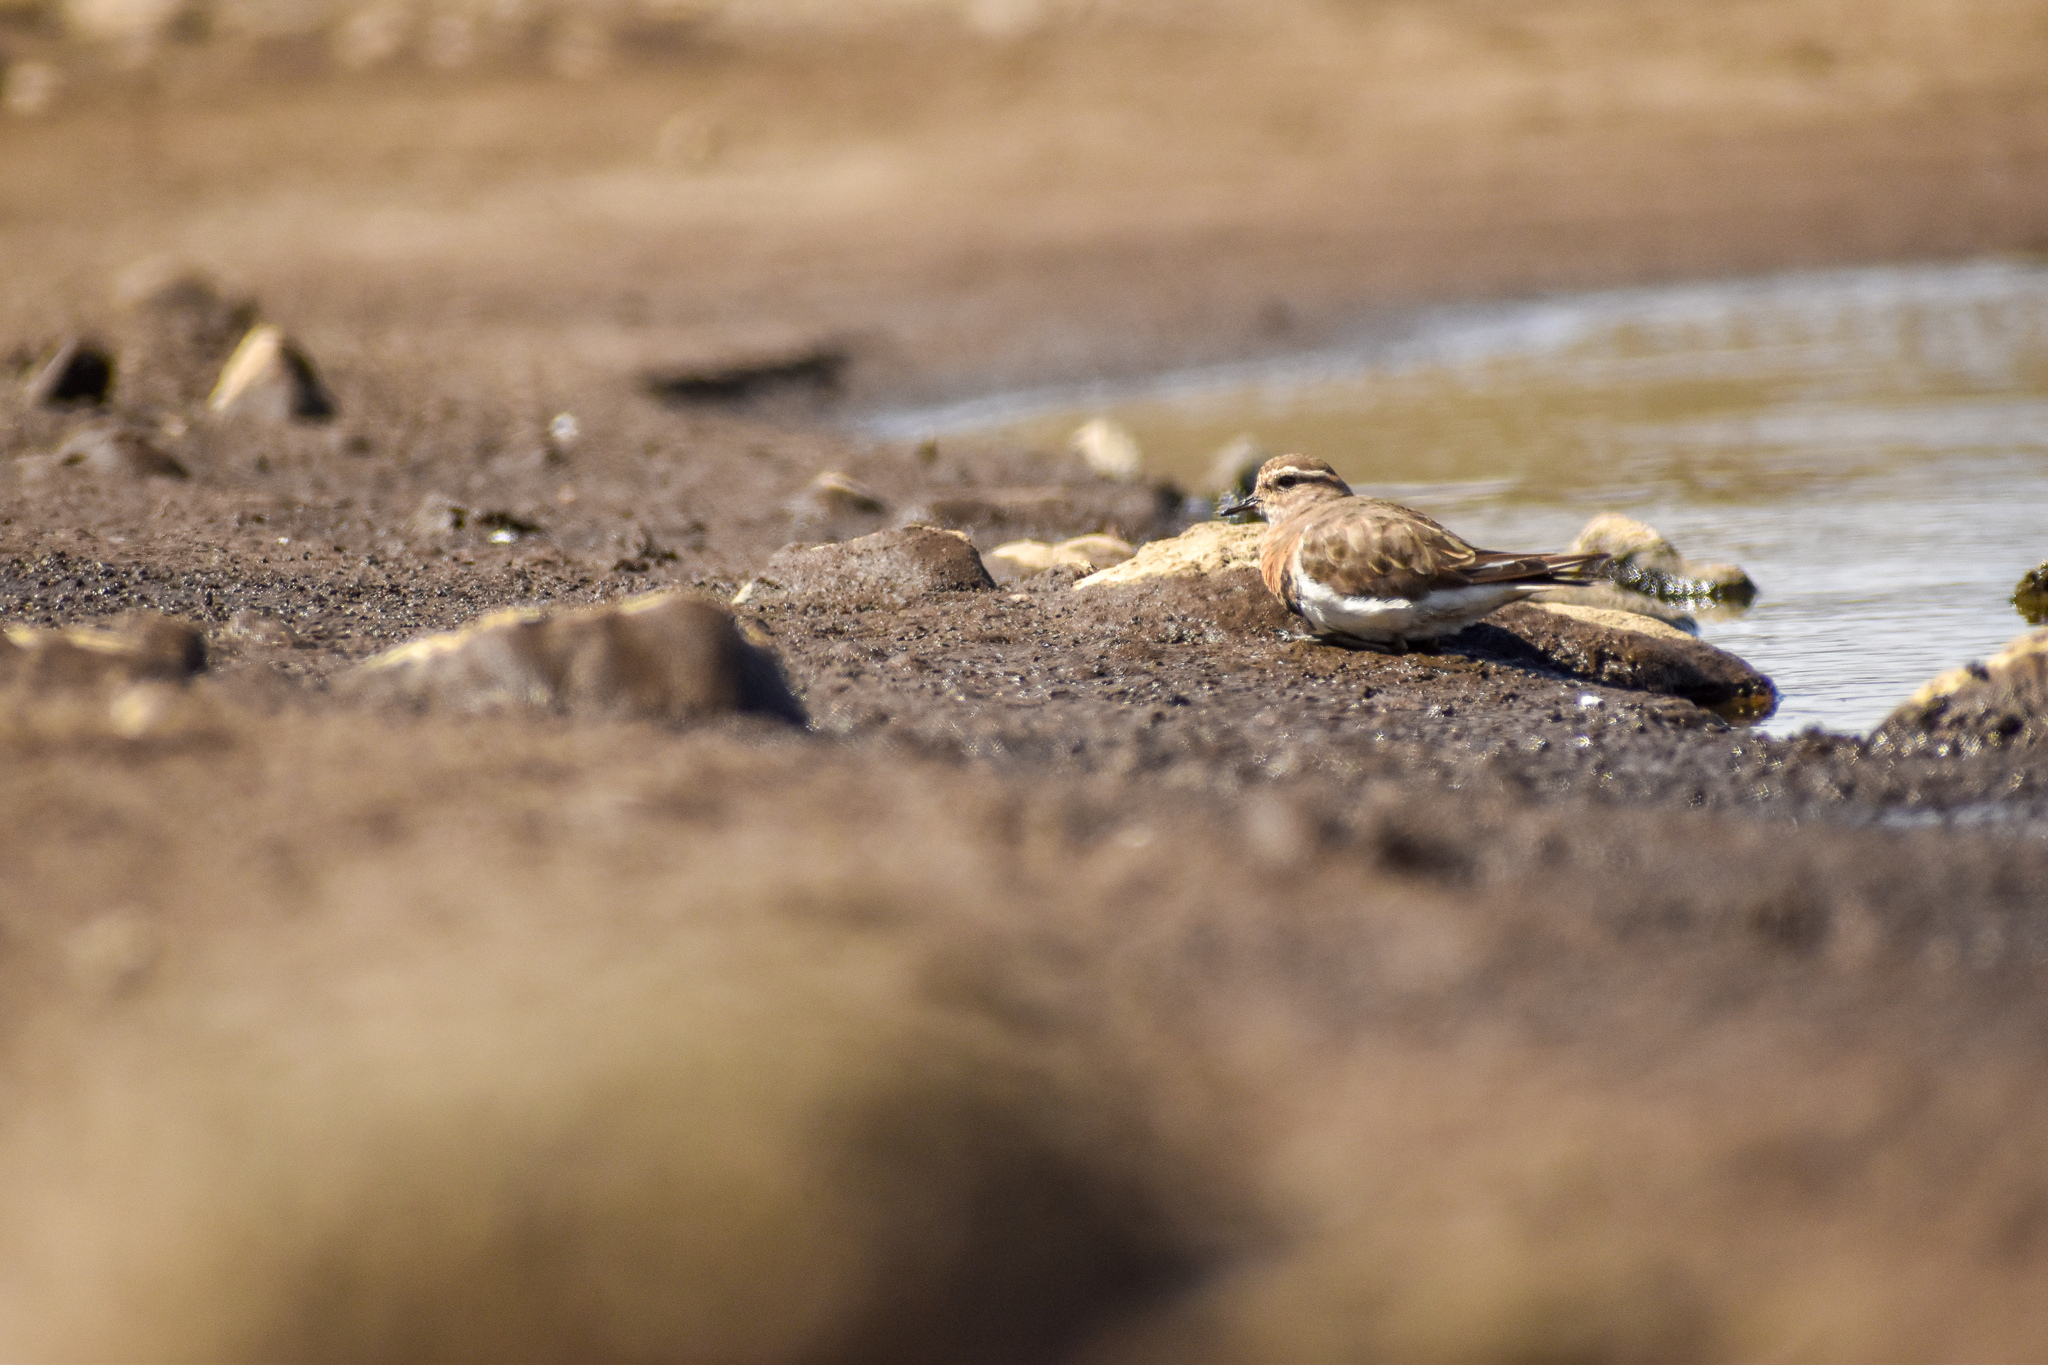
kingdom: Animalia
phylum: Chordata
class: Aves
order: Charadriiformes
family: Charadriidae
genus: Charadrius
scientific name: Charadrius modestus
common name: Rufous-chested plover
